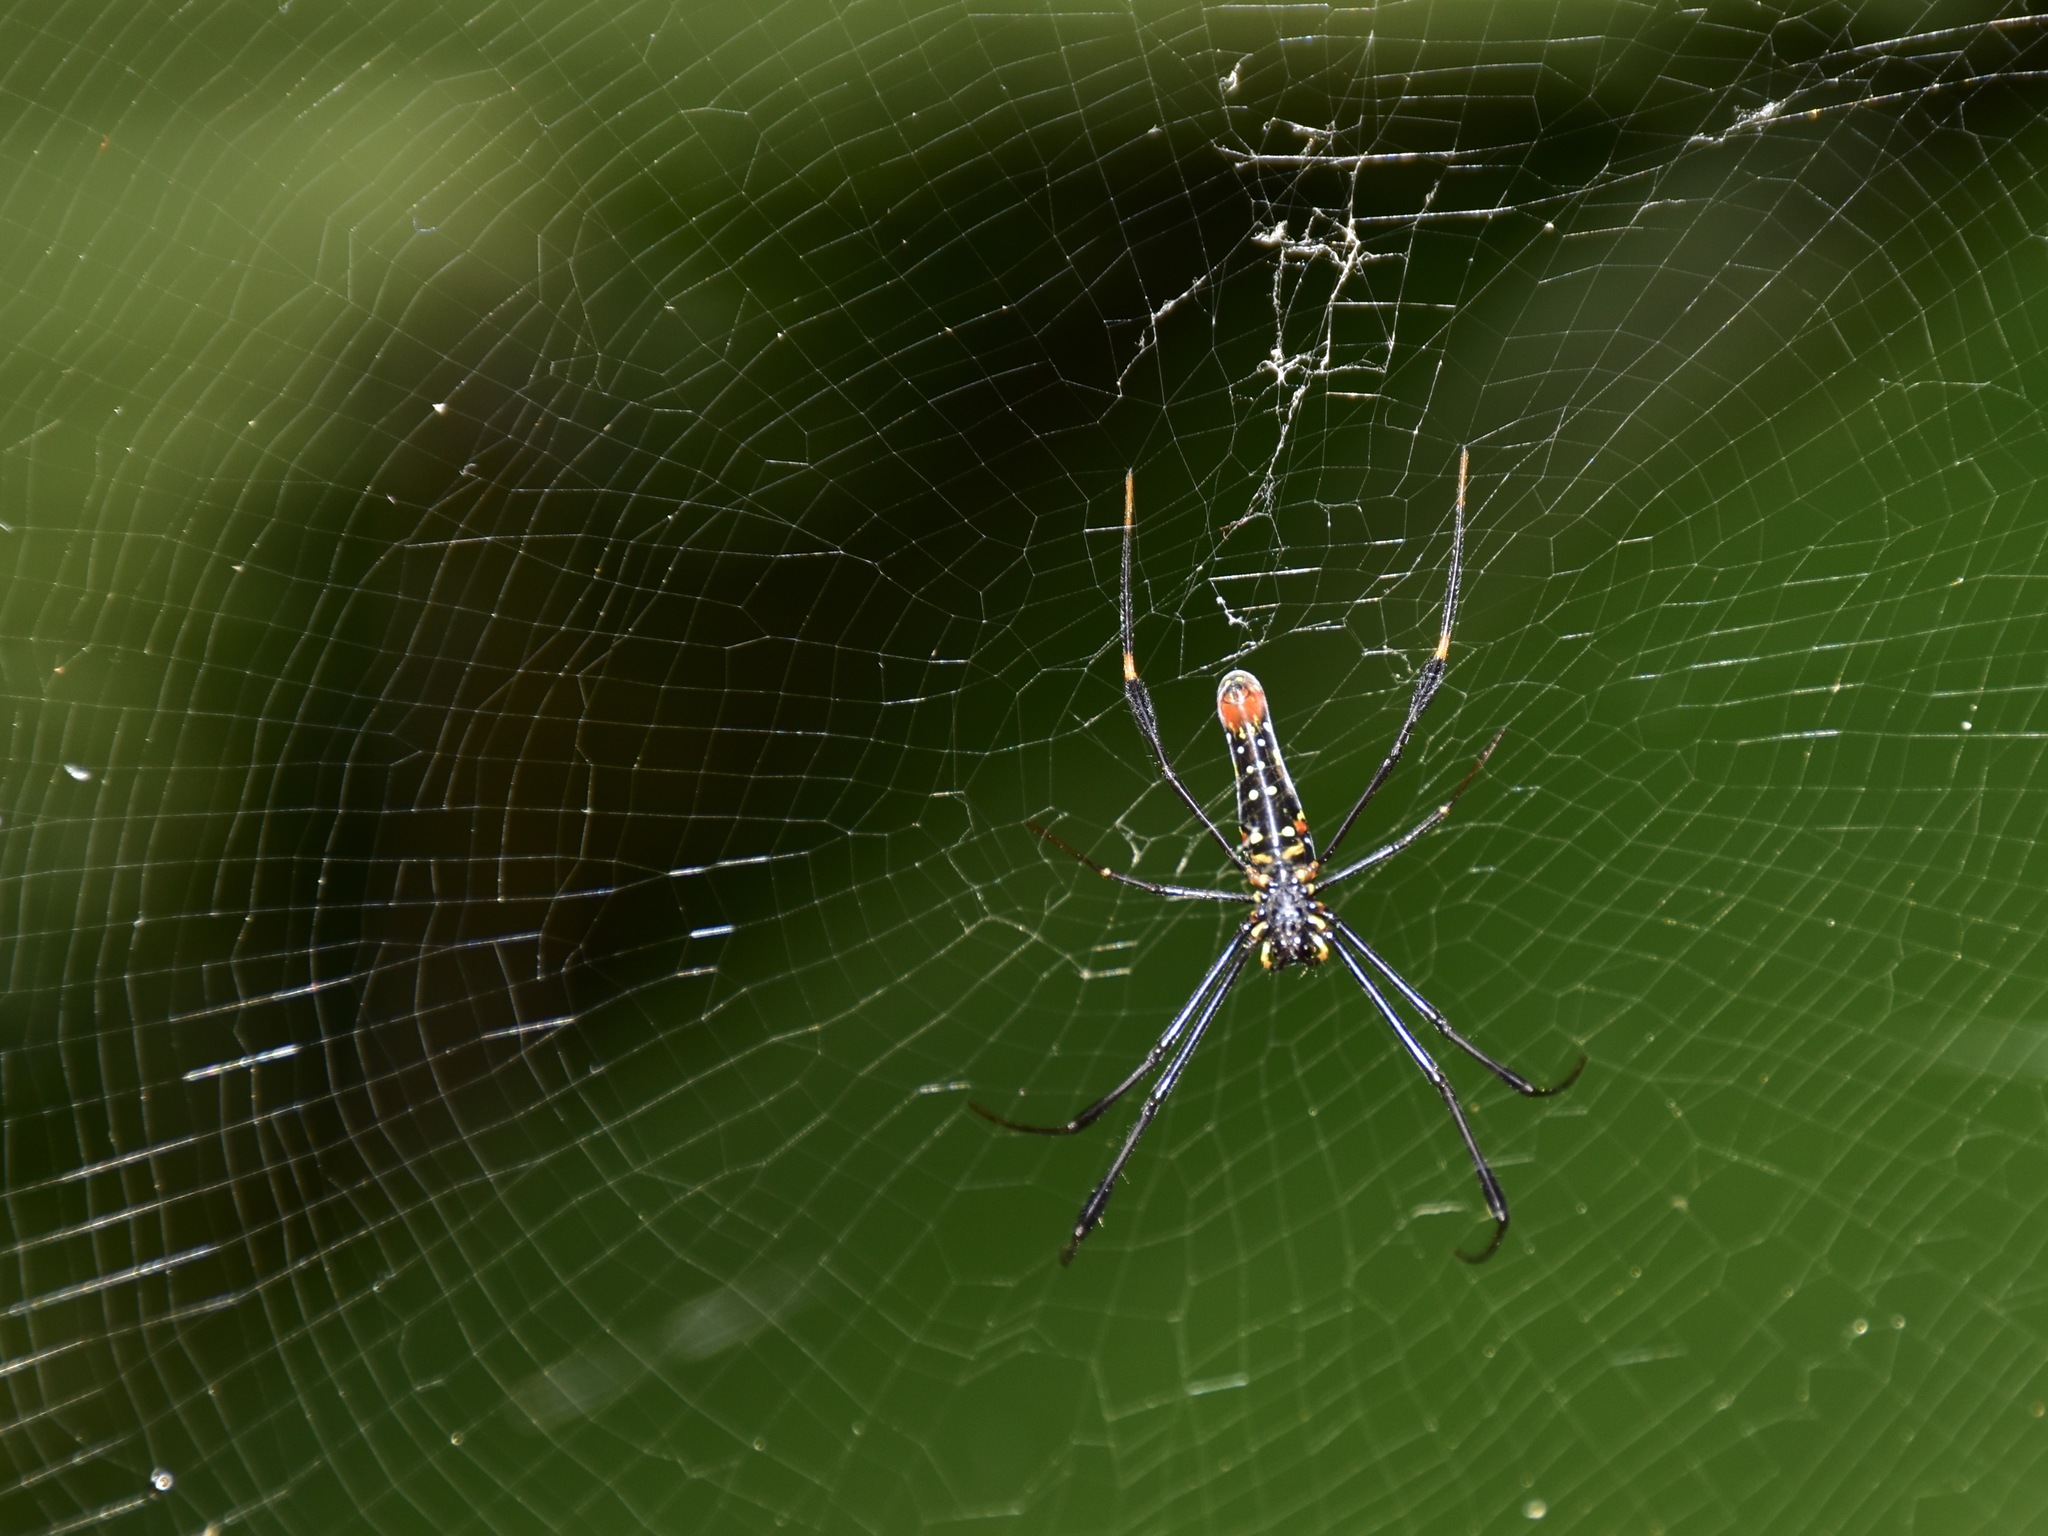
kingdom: Animalia
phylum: Arthropoda
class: Arachnida
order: Araneae
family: Araneidae
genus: Nephila
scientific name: Nephila pilipes
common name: Giant golden orb weaver
